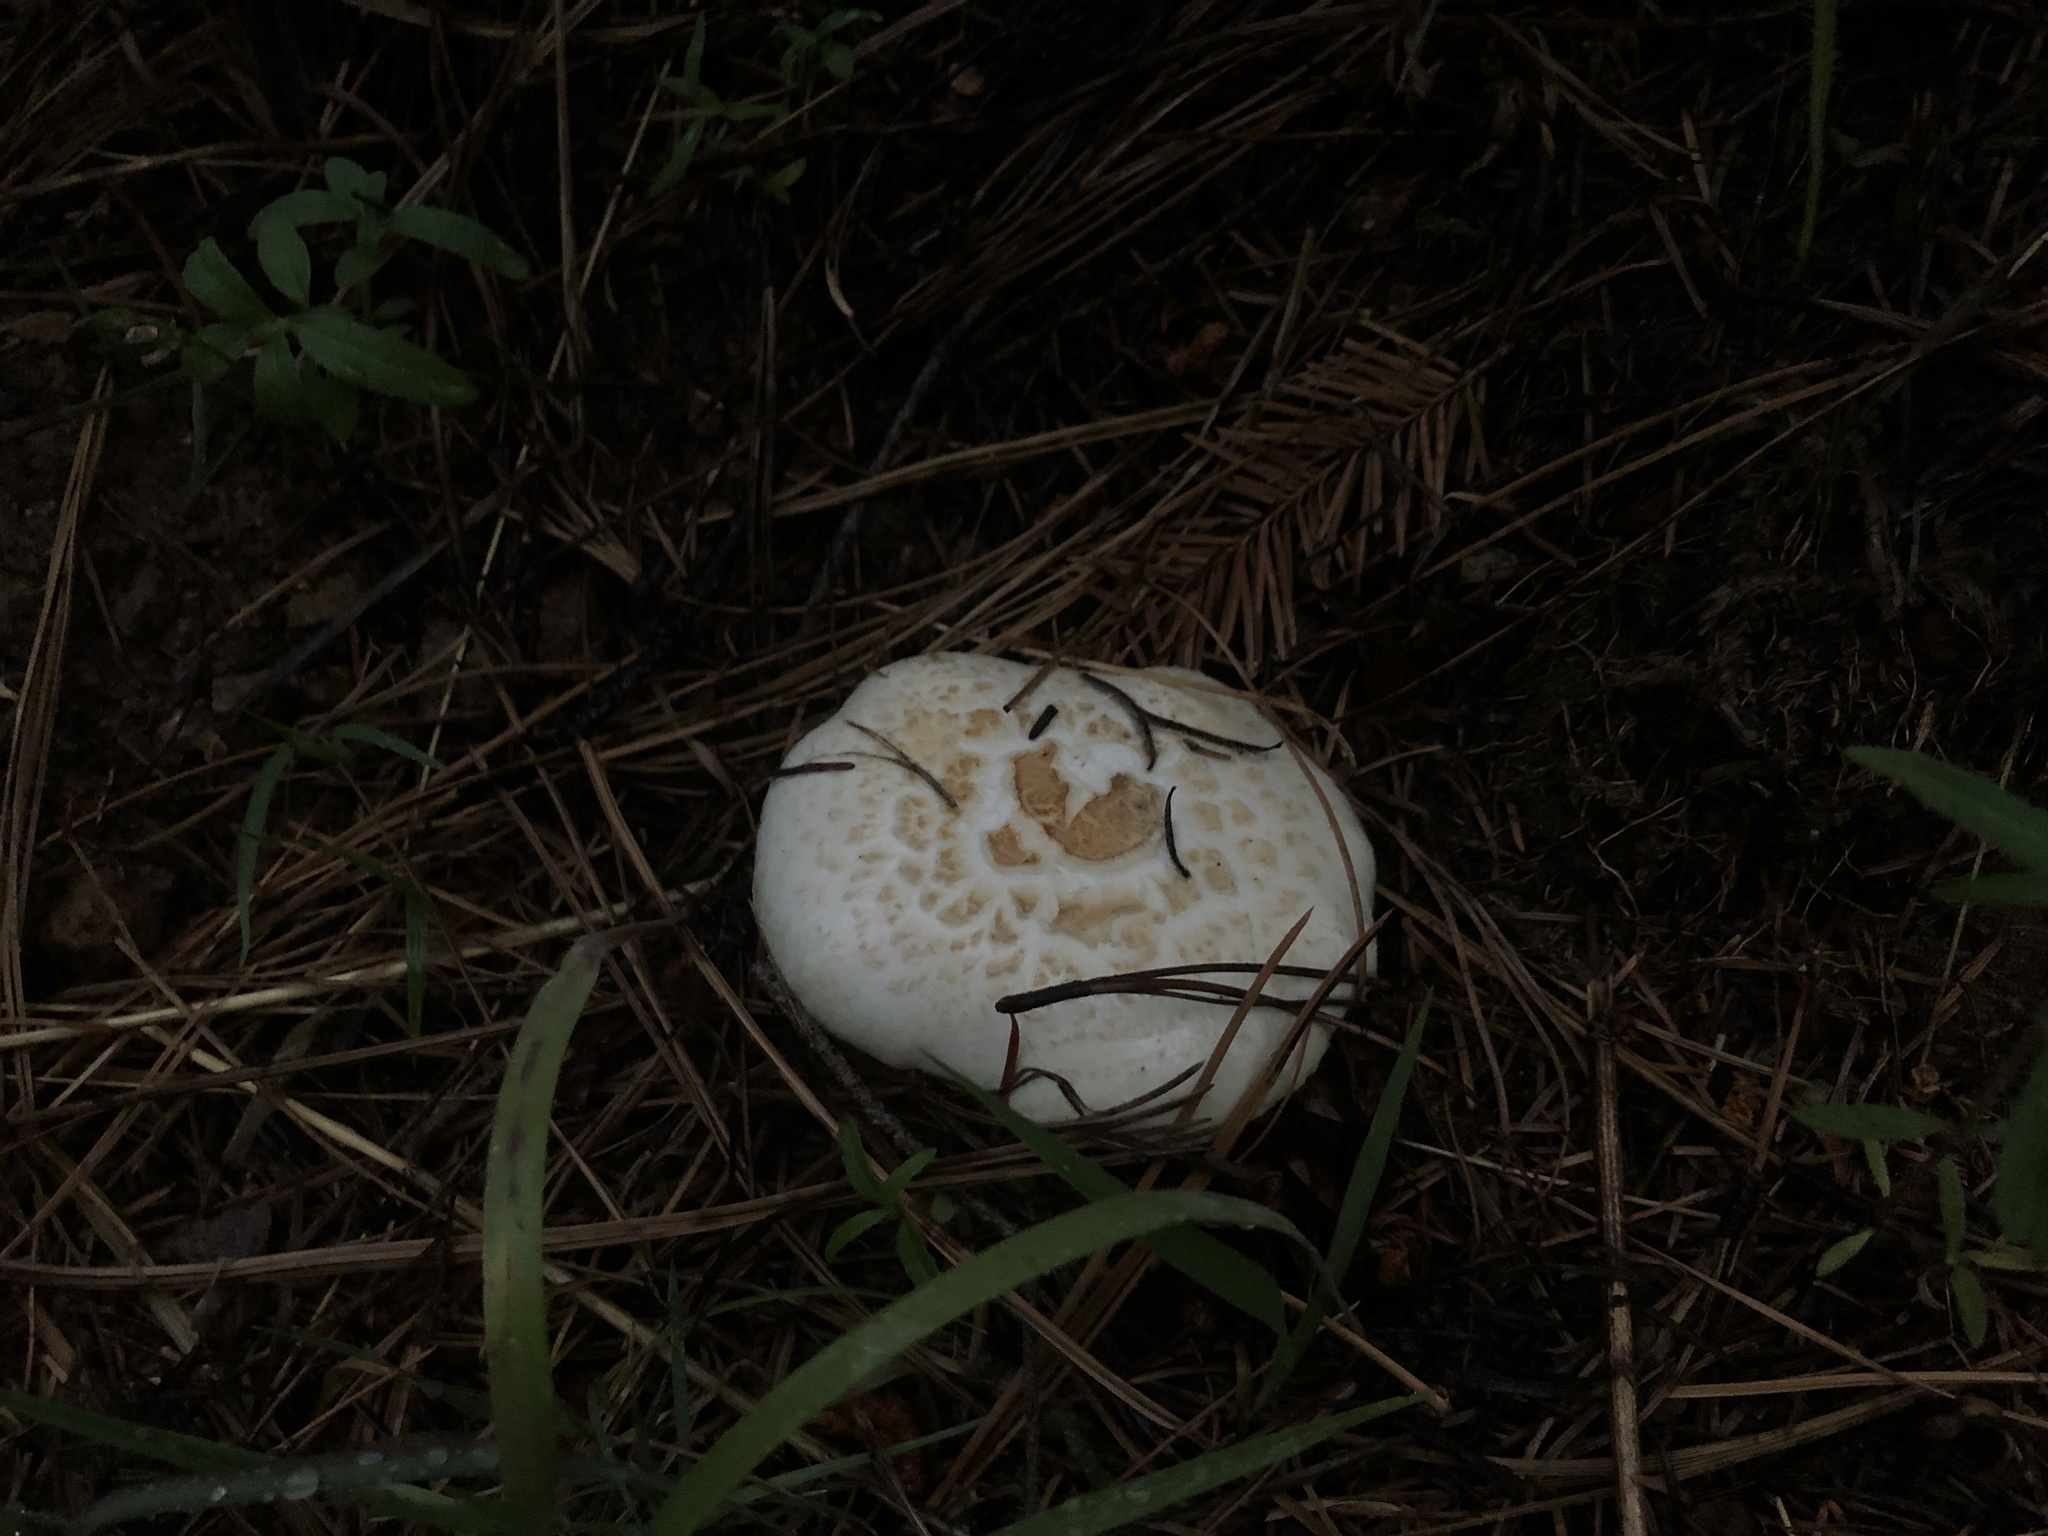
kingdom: Fungi
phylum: Basidiomycota
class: Agaricomycetes
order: Gloeophyllales
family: Gloeophyllaceae
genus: Neolentinus
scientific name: Neolentinus ponderosus
